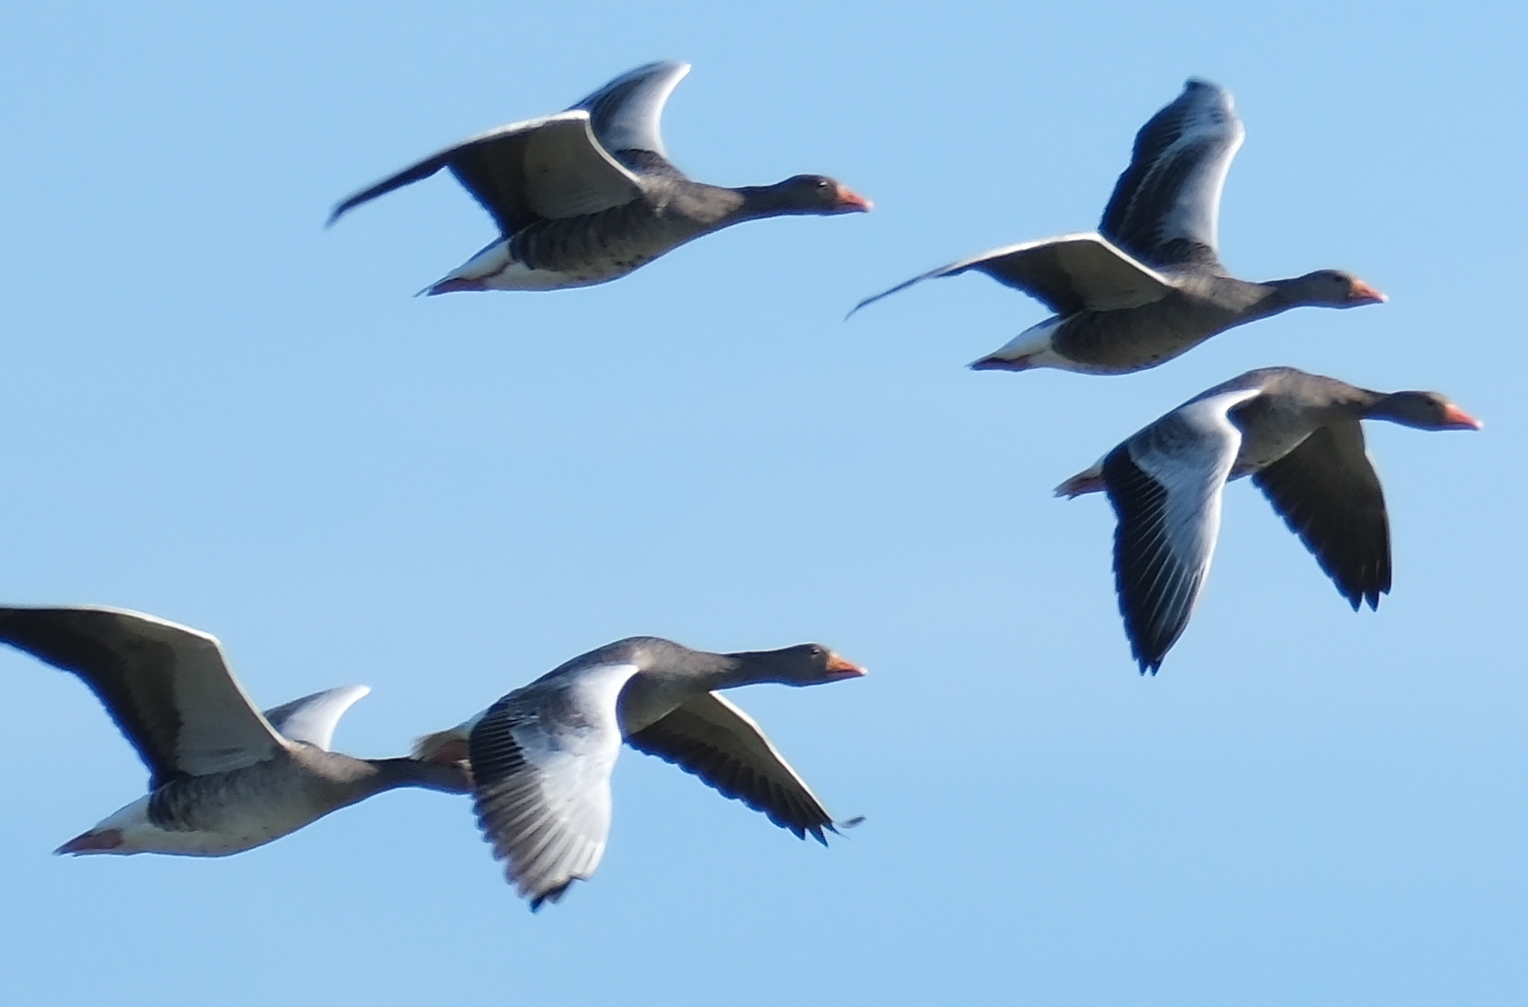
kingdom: Animalia
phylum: Chordata
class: Aves
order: Anseriformes
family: Anatidae
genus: Anser
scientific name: Anser anser
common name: Greylag goose
